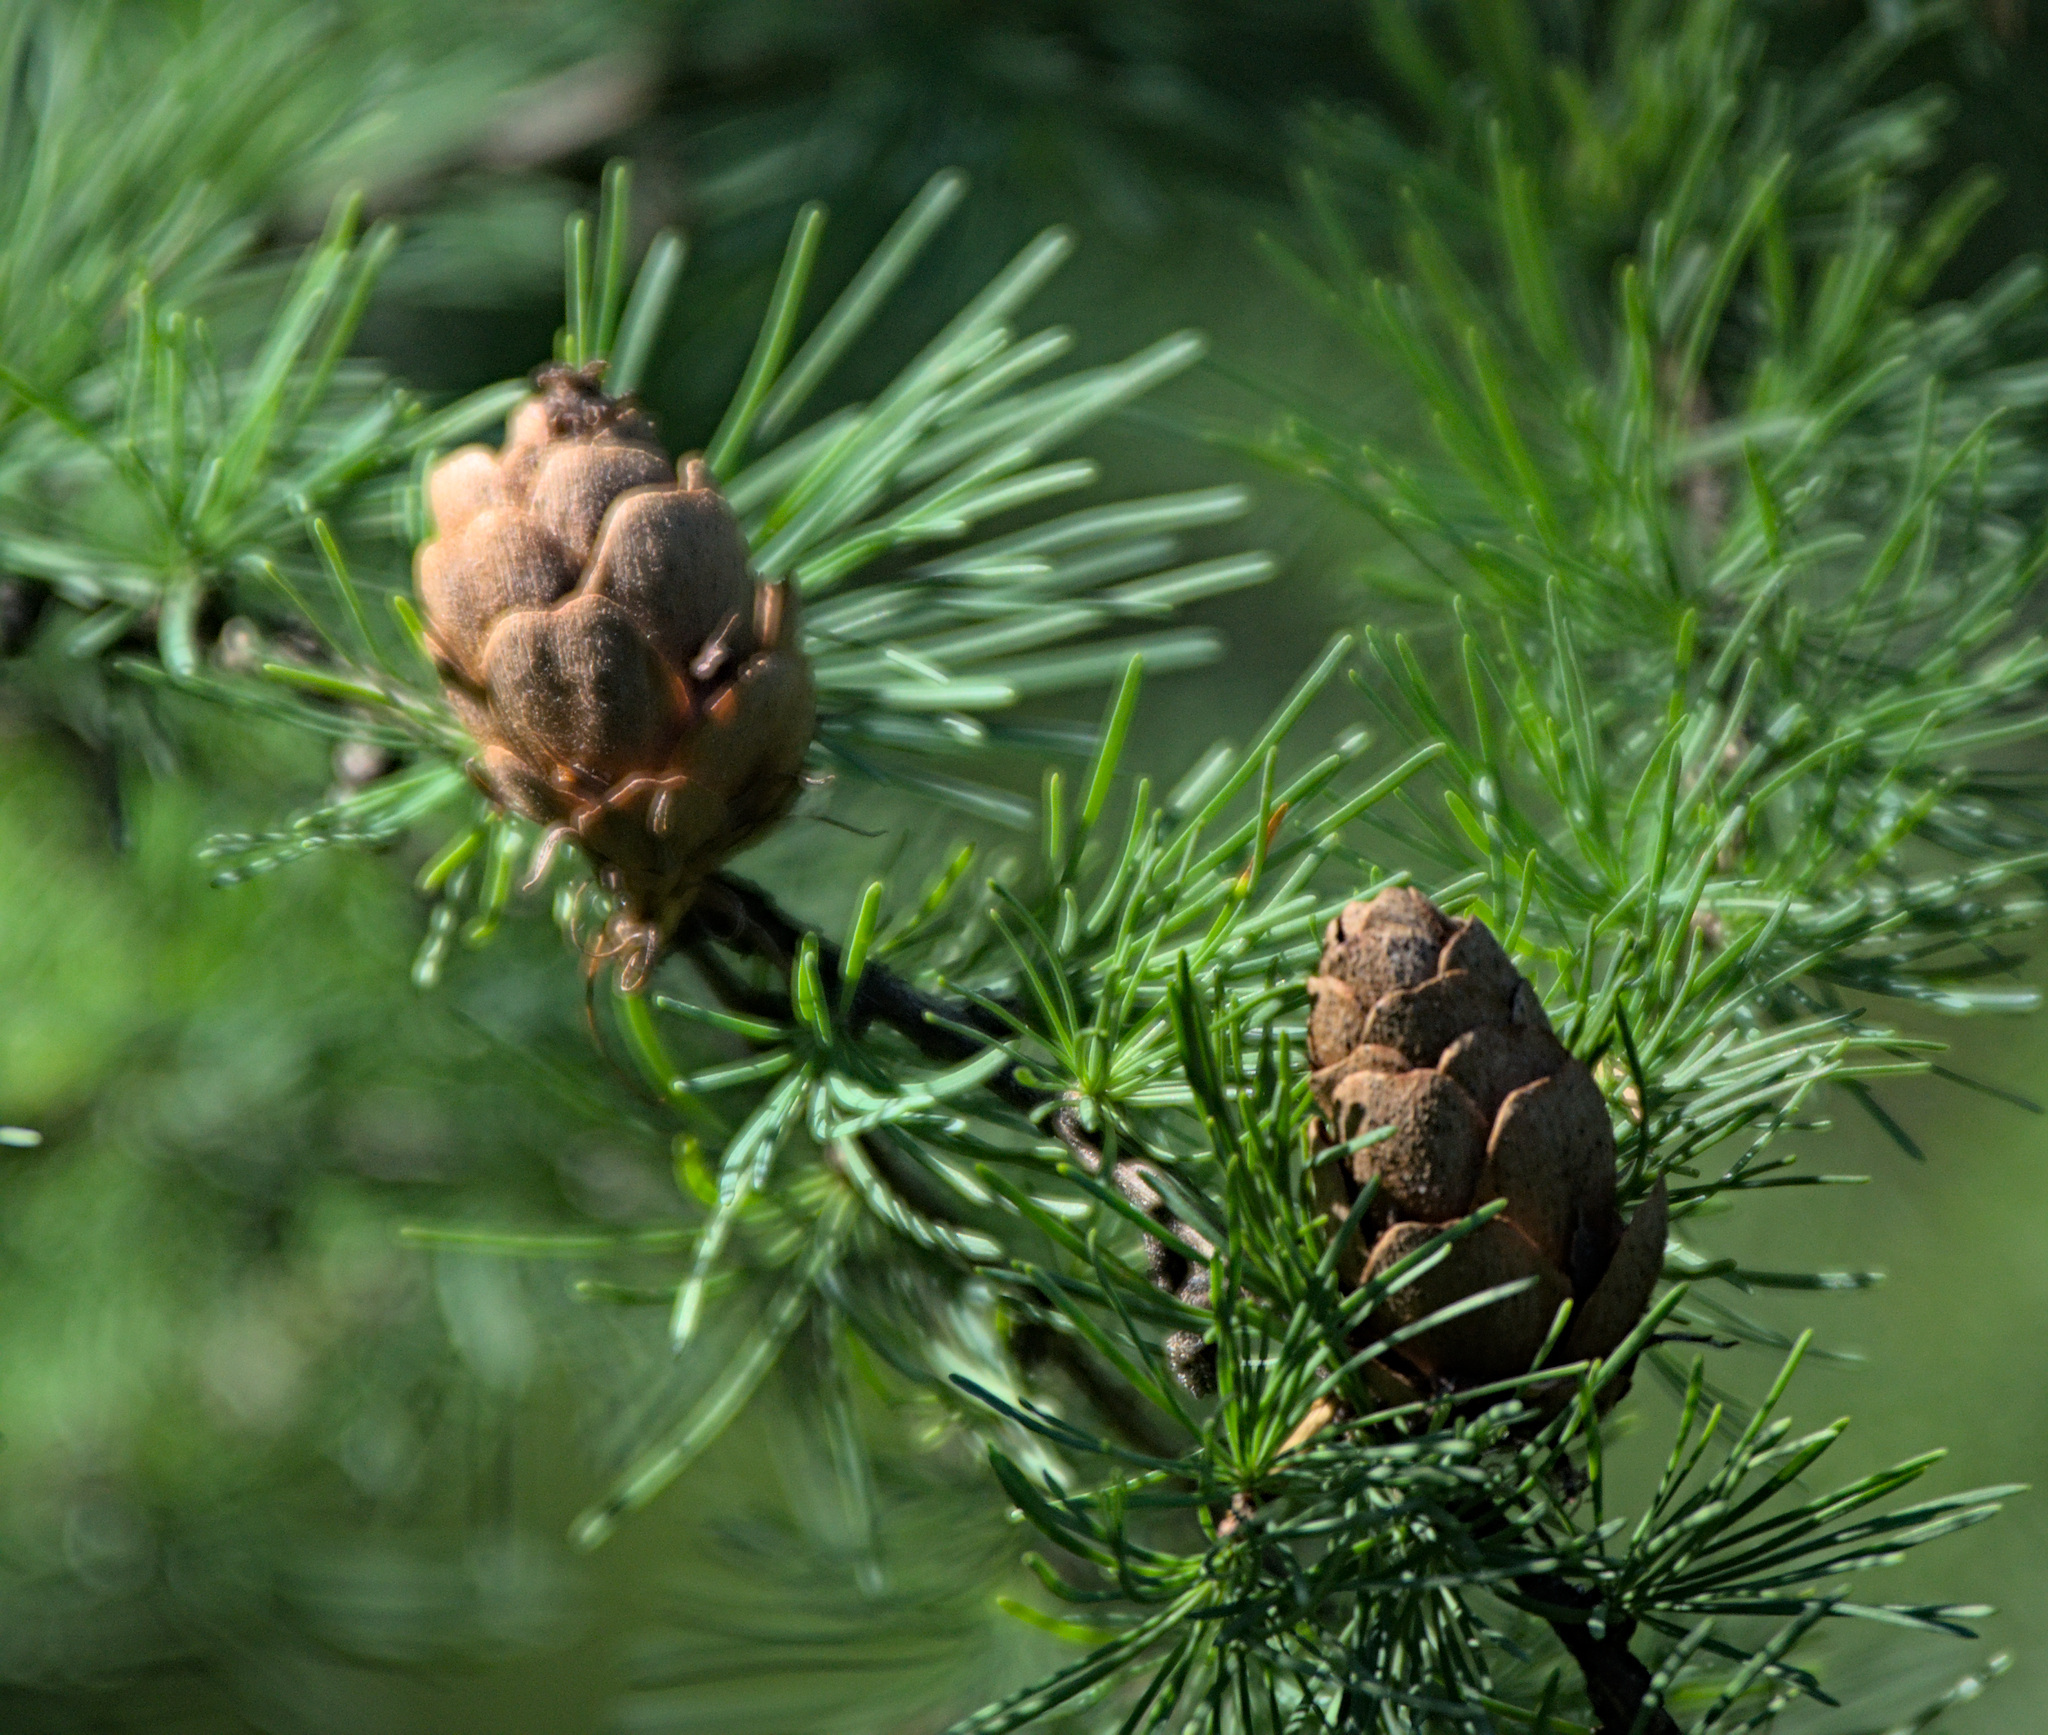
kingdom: Plantae
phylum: Tracheophyta
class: Pinopsida
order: Pinales
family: Pinaceae
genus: Larix
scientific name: Larix sibirica
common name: Siberian larch
